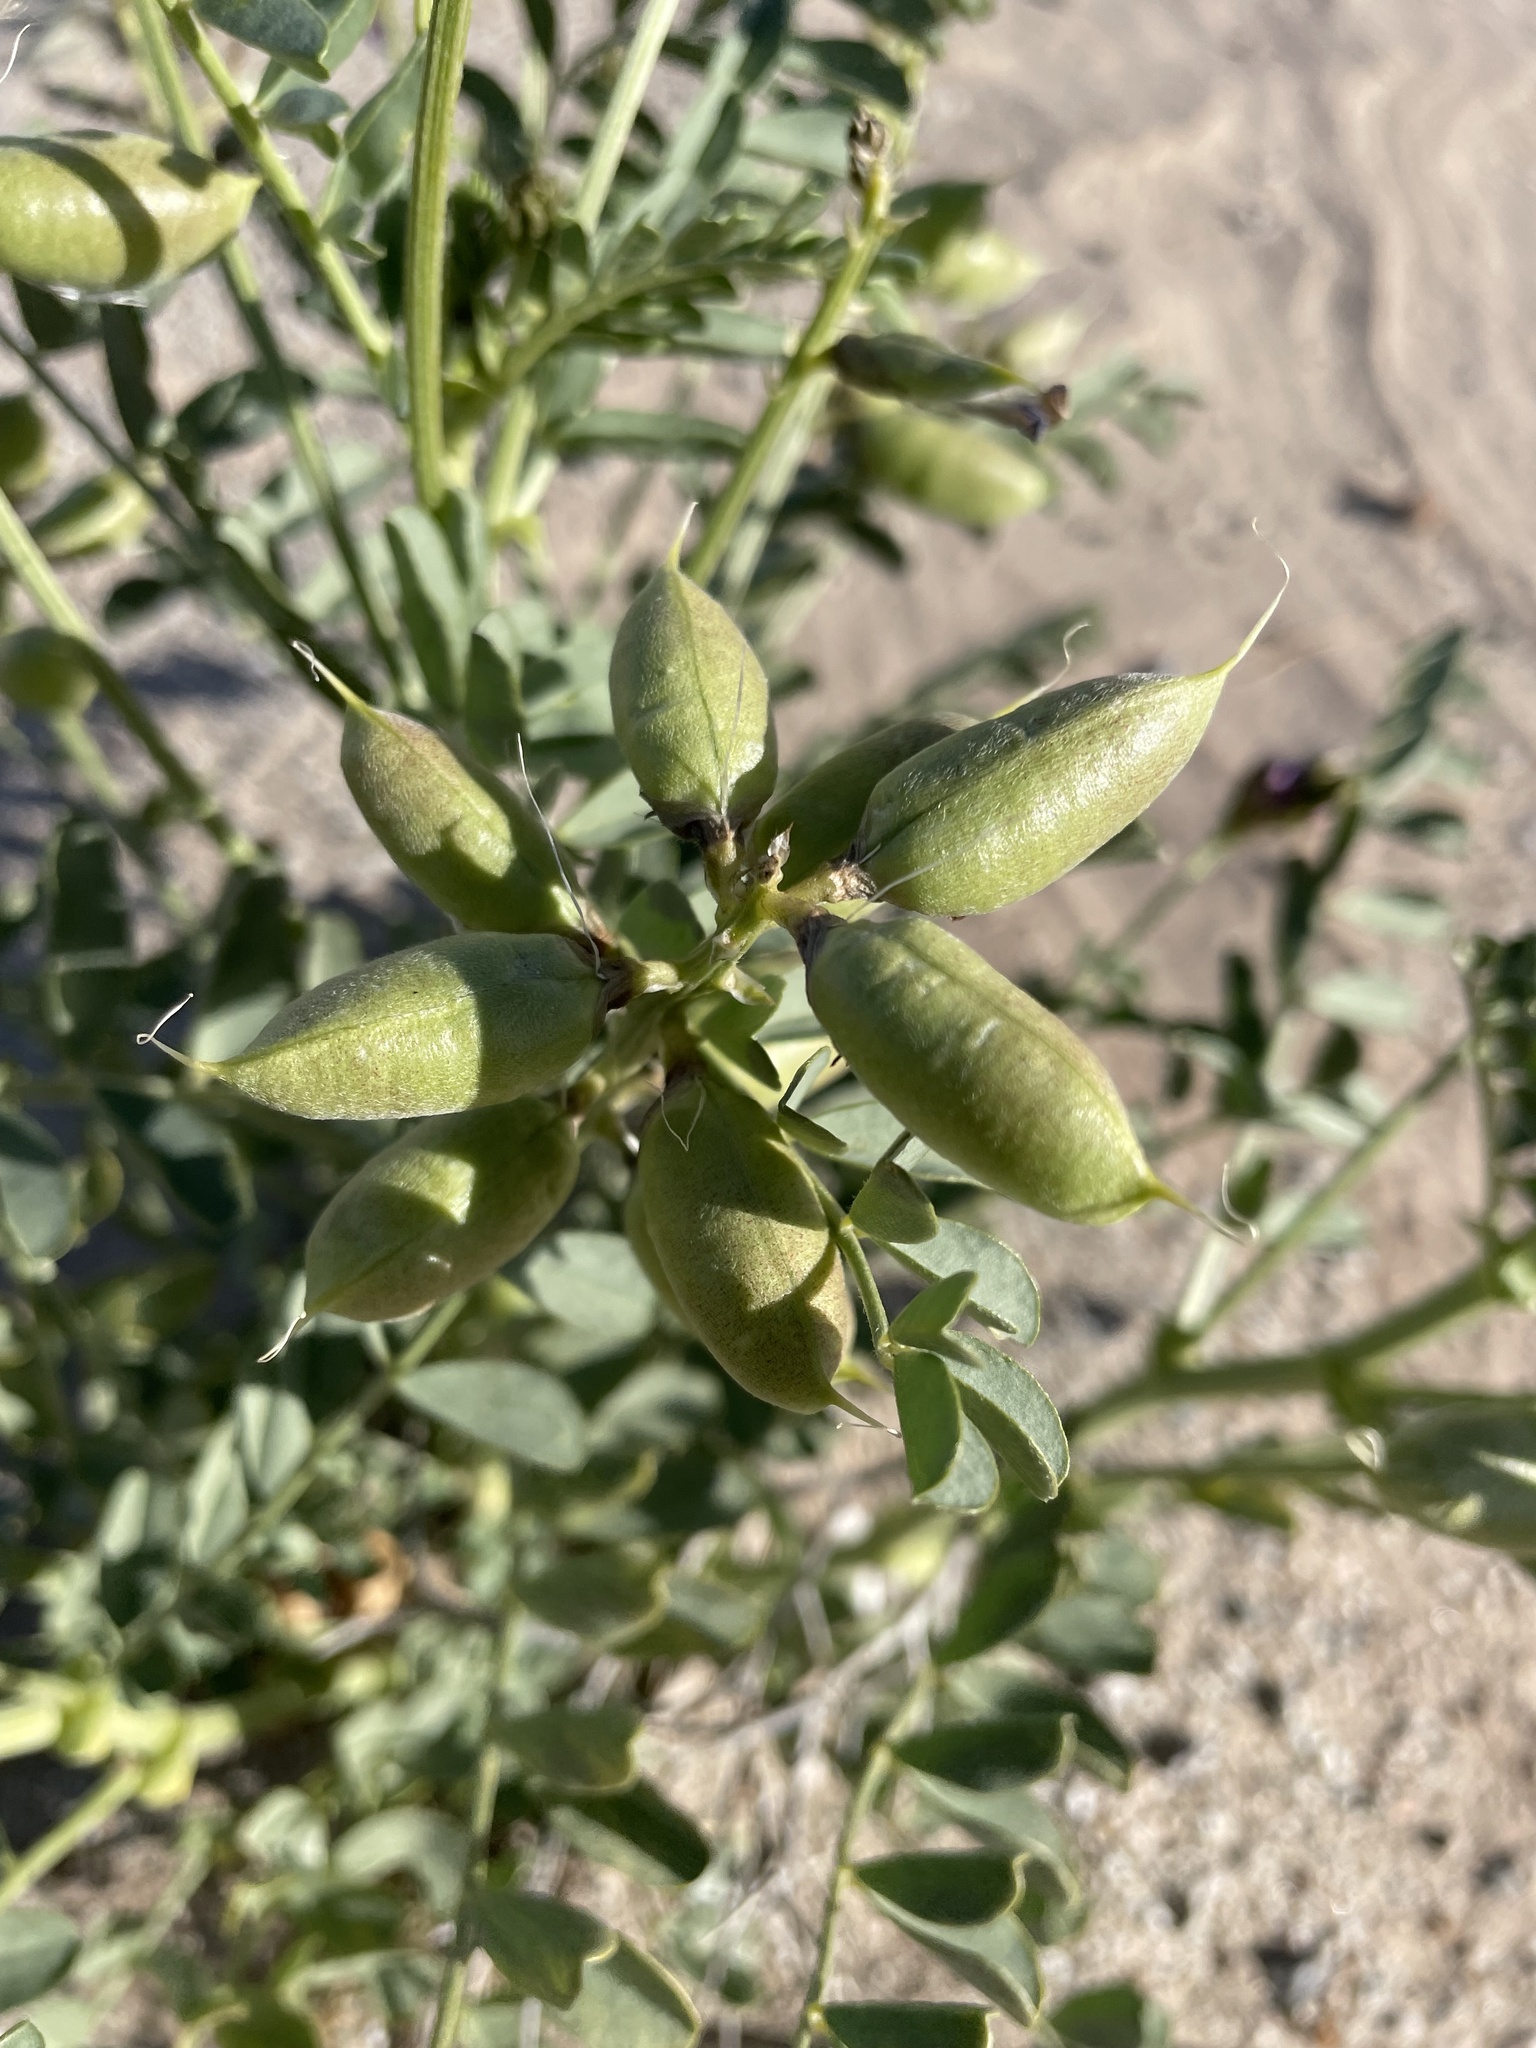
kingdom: Plantae
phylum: Tracheophyta
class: Magnoliopsida
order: Fabales
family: Fabaceae
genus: Astragalus
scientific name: Astragalus crotalariae
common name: Salton milkvetch
